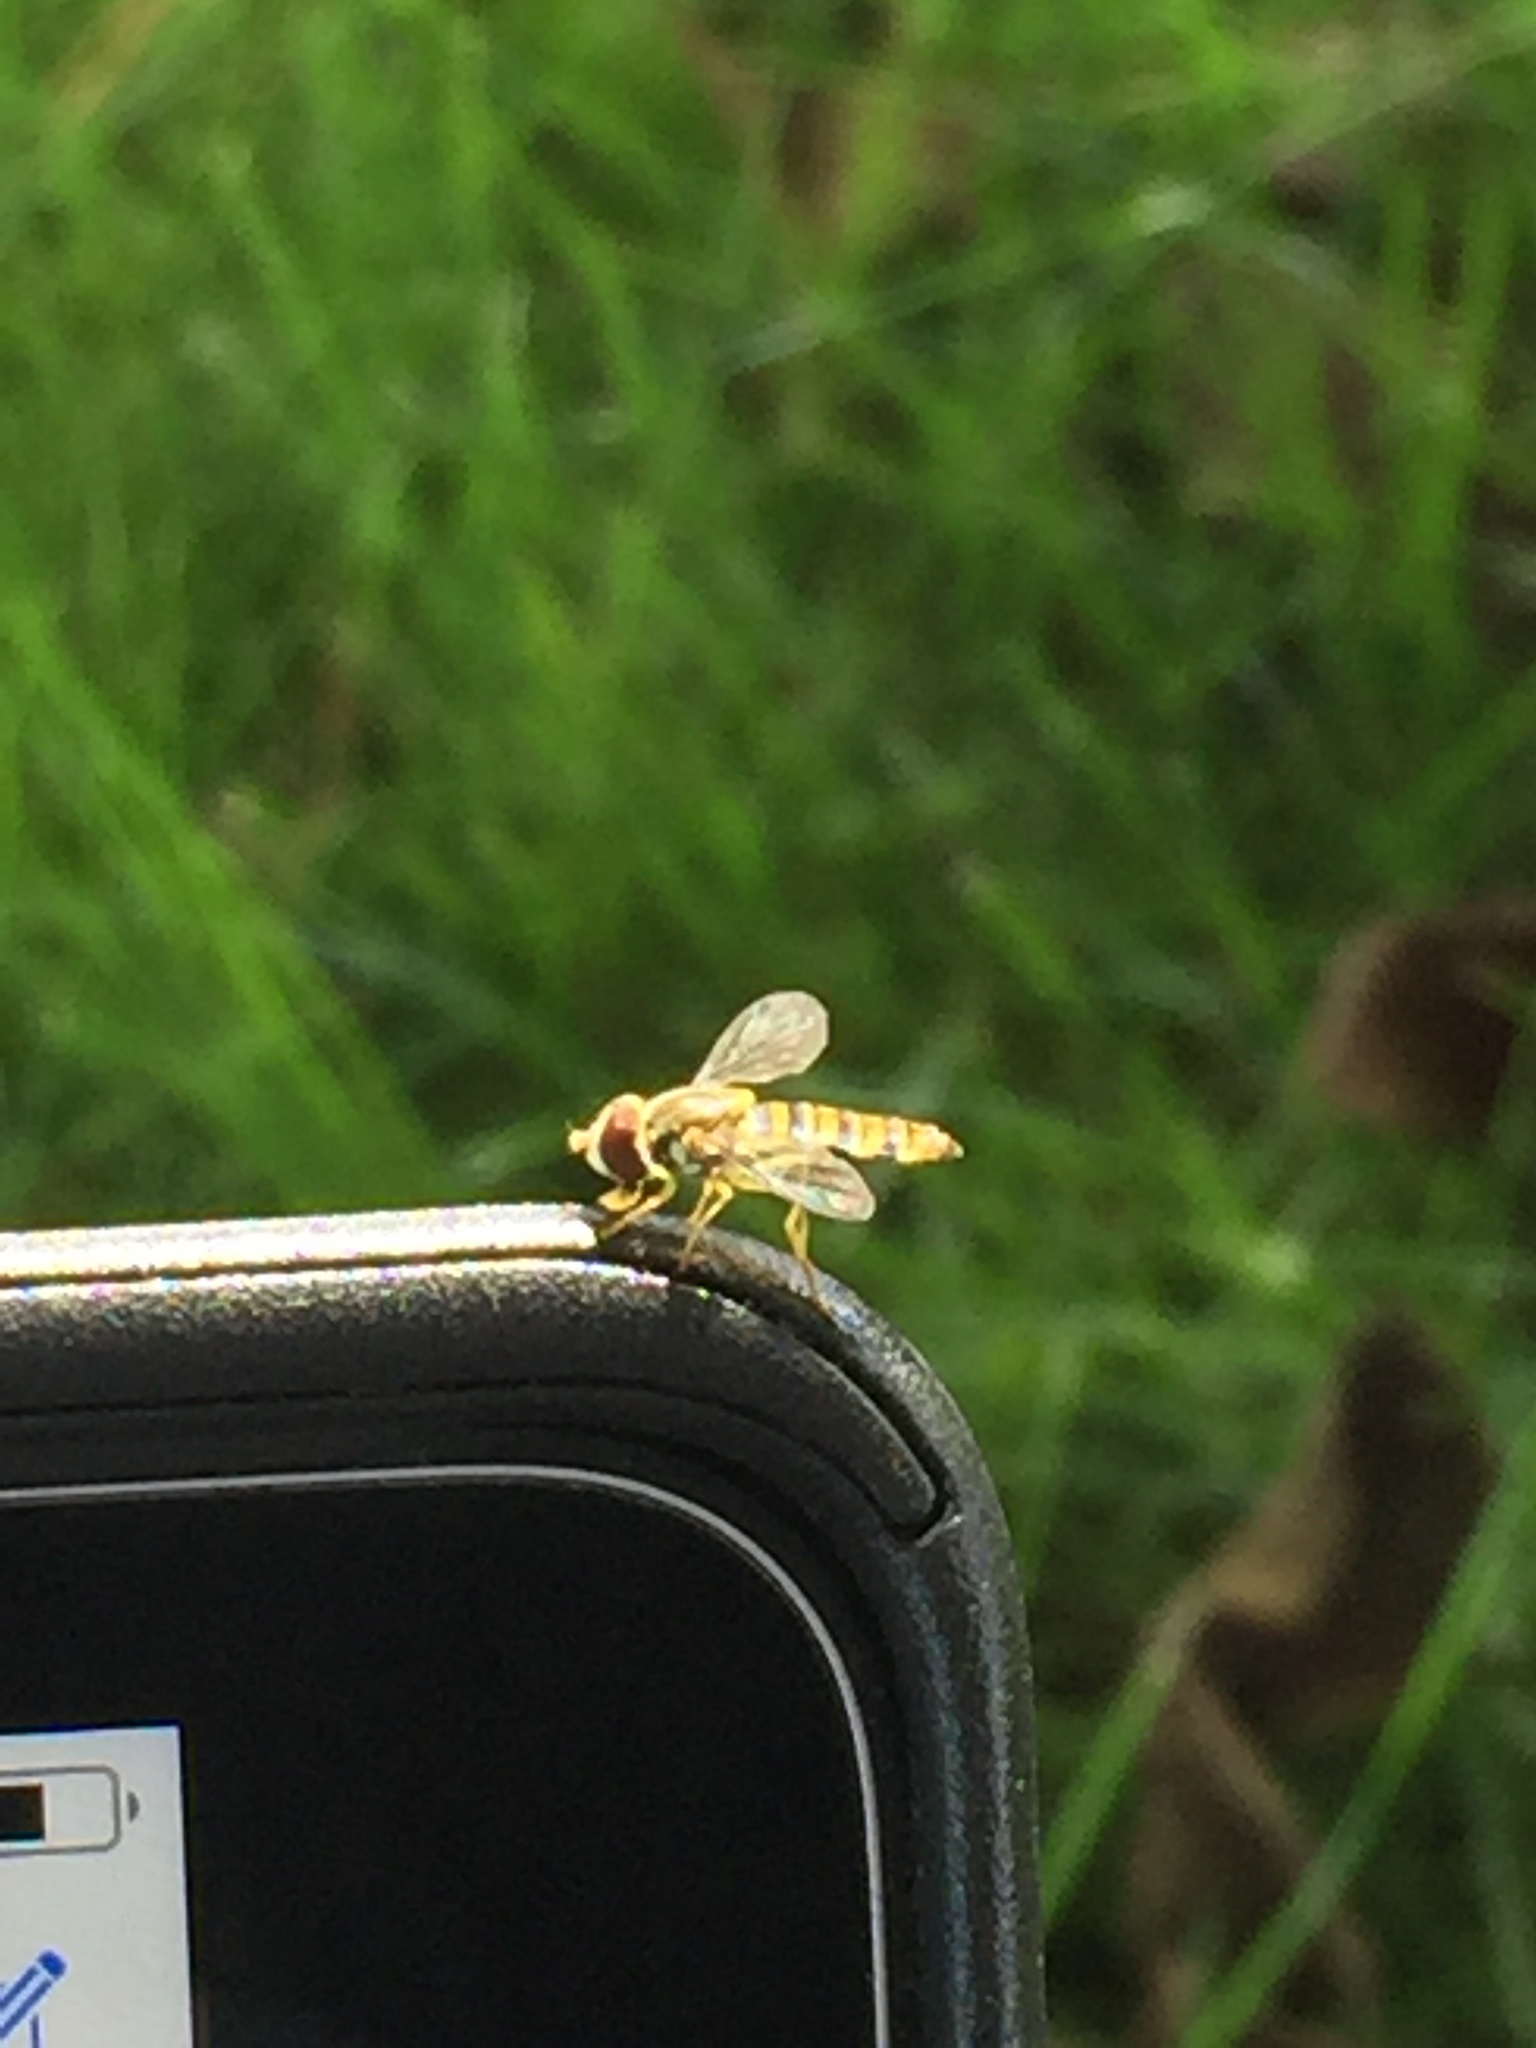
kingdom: Animalia
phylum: Arthropoda
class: Insecta
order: Diptera
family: Syrphidae
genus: Toxomerus
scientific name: Toxomerus politus
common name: Maize calligrapher
